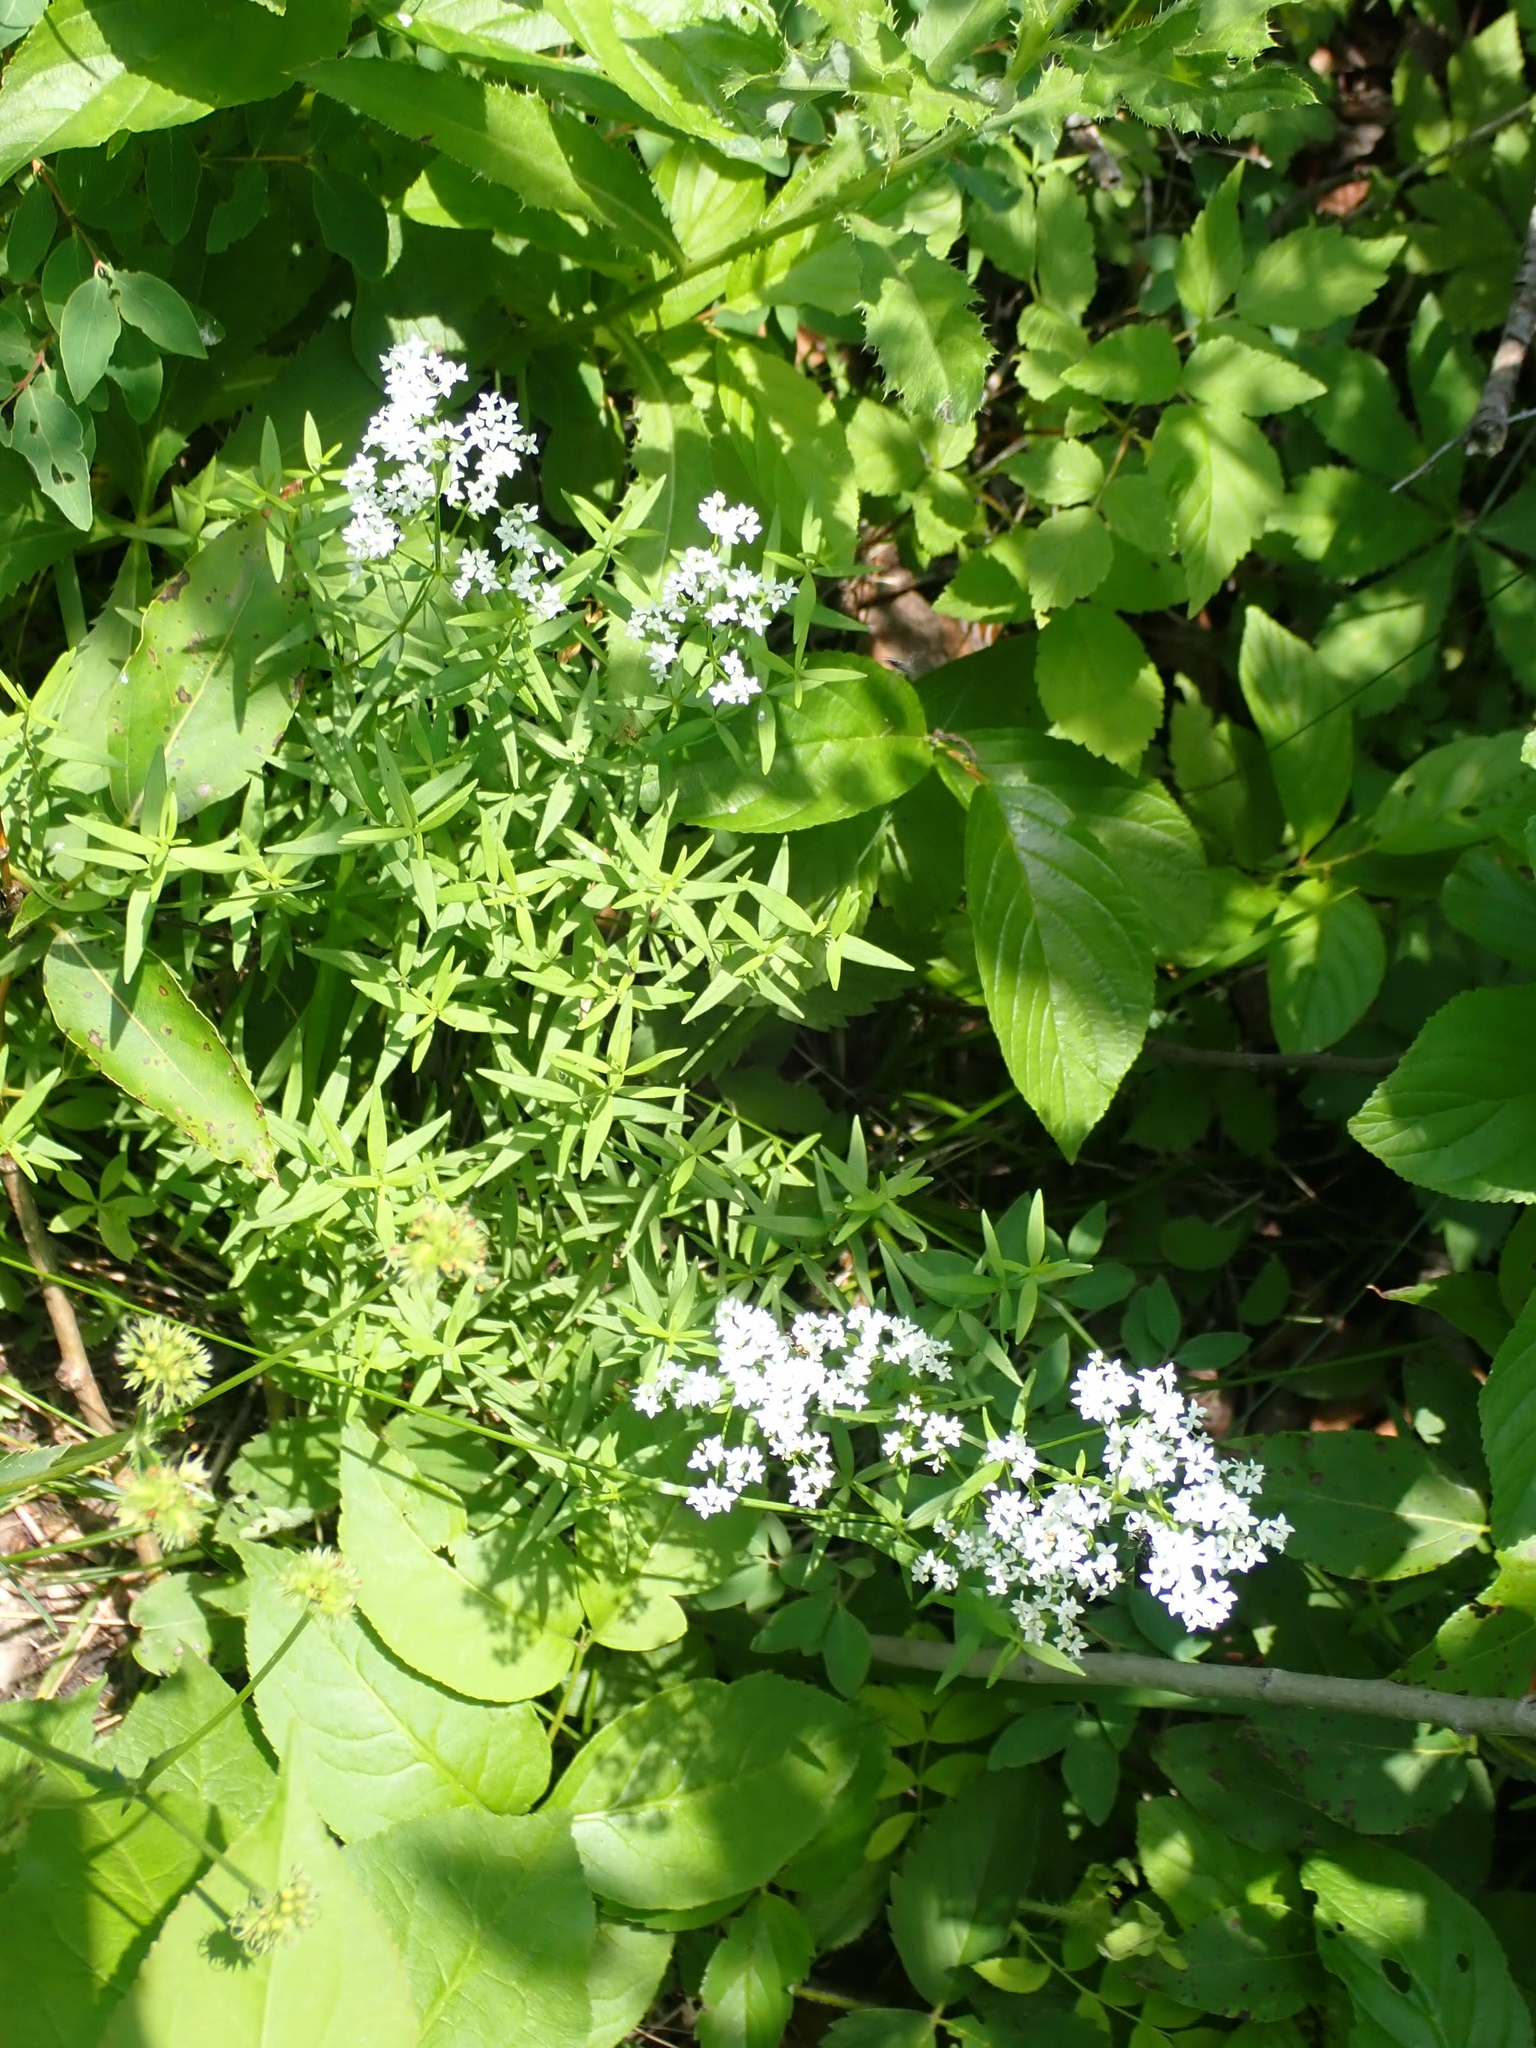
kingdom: Plantae
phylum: Tracheophyta
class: Magnoliopsida
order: Gentianales
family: Rubiaceae
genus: Galium
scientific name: Galium boreale
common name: Northern bedstraw
